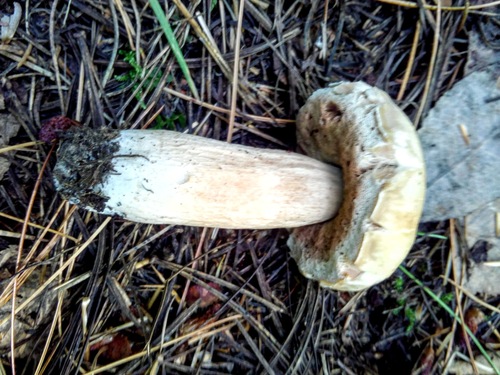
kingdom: Fungi
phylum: Basidiomycota
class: Agaricomycetes
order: Boletales
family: Boletaceae
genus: Boletus
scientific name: Boletus edulis
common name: Cep
